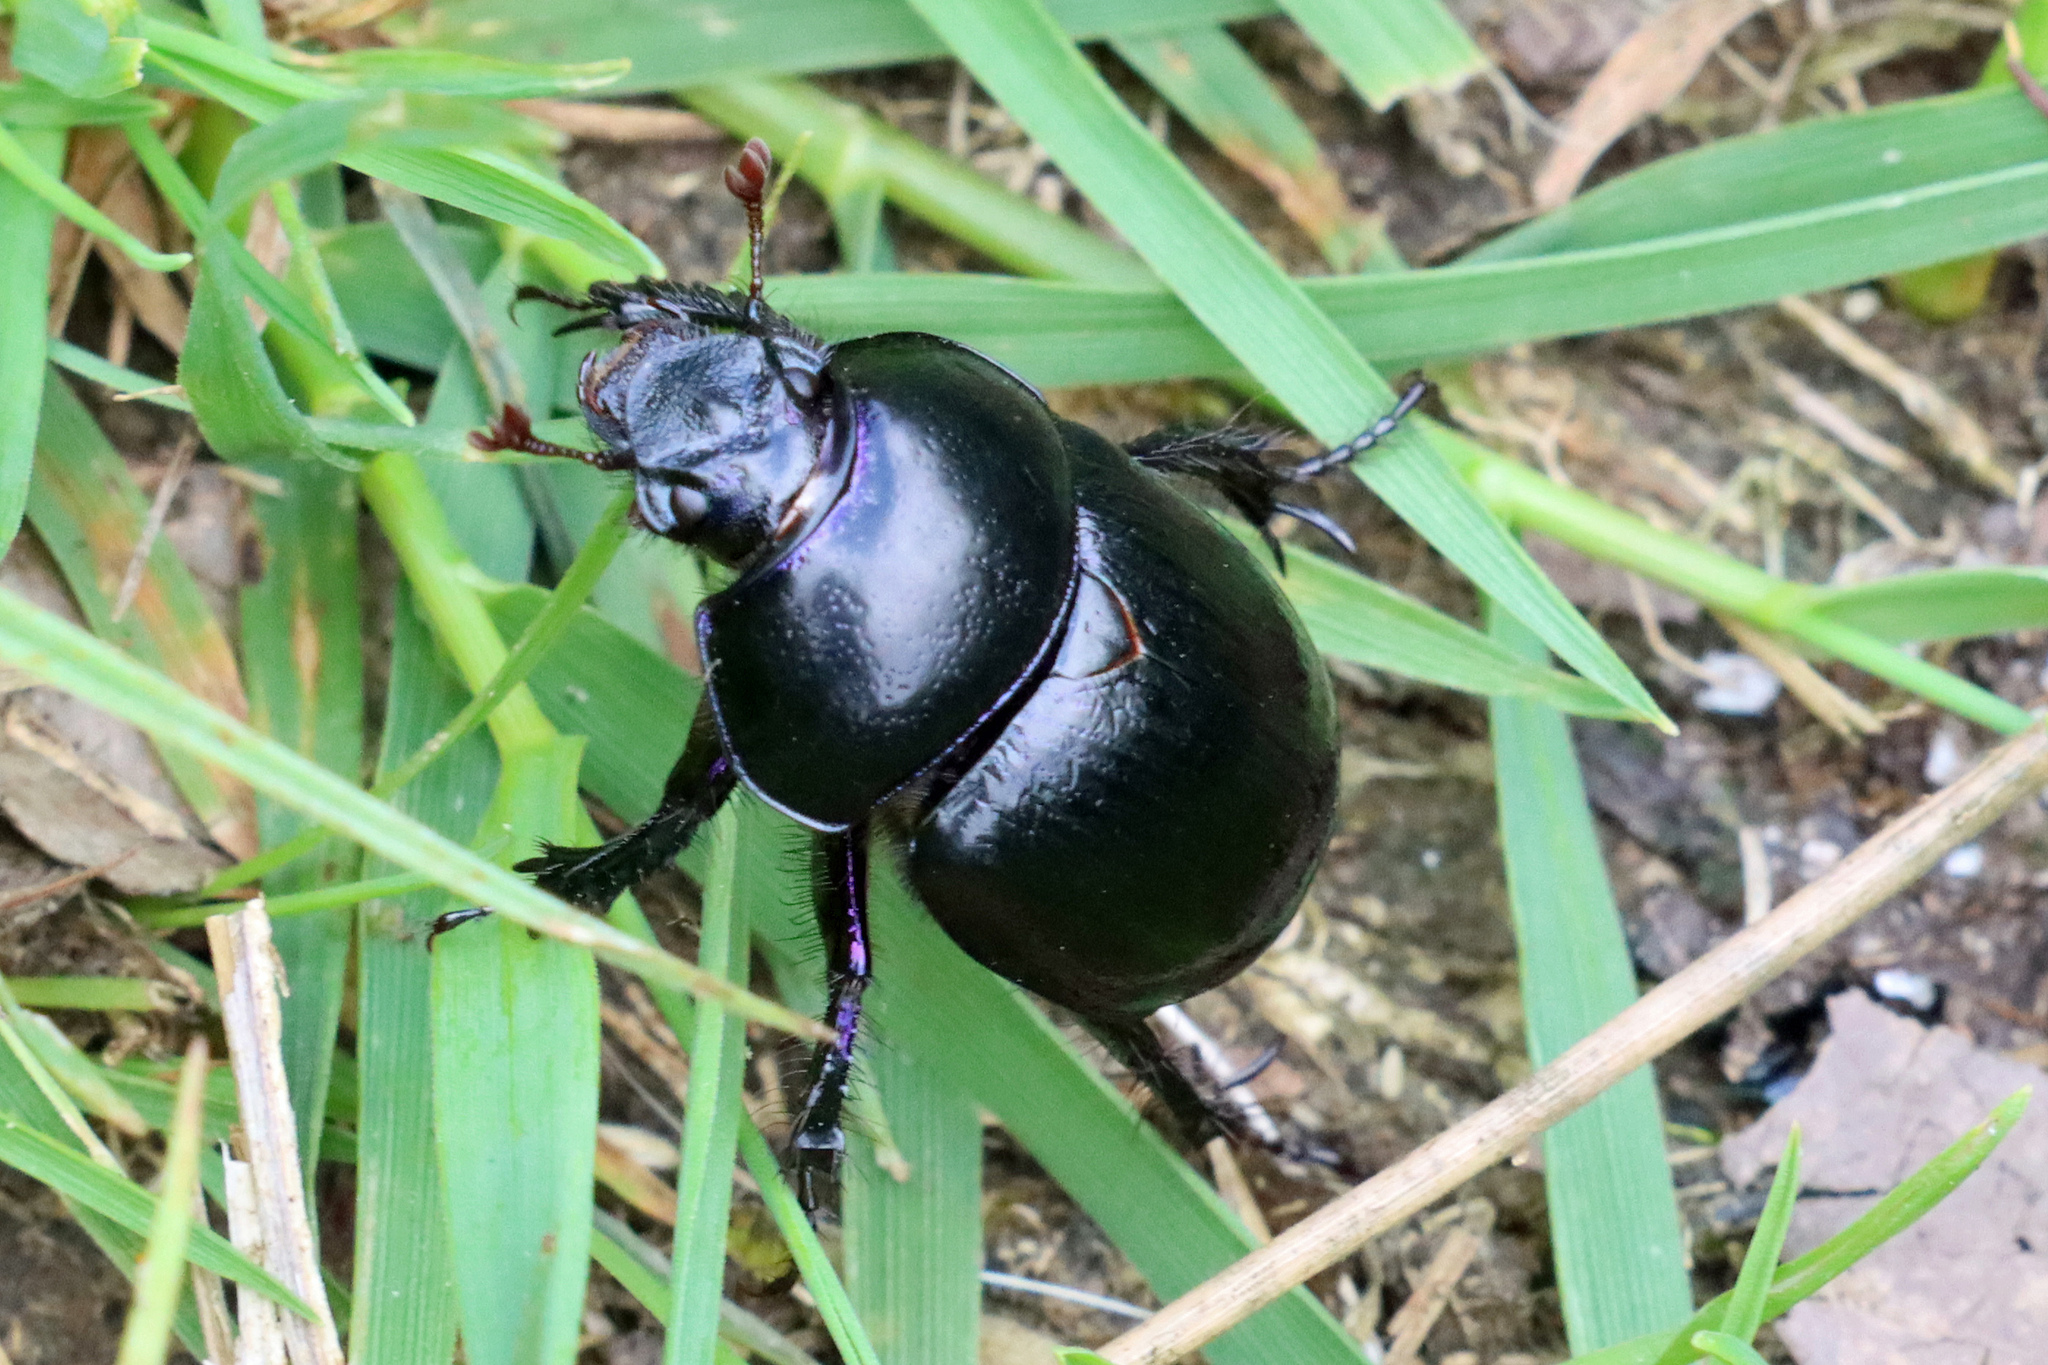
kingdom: Animalia
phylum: Arthropoda
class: Insecta
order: Coleoptera
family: Geotrupidae
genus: Anoplotrupes
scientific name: Anoplotrupes stercorosus
